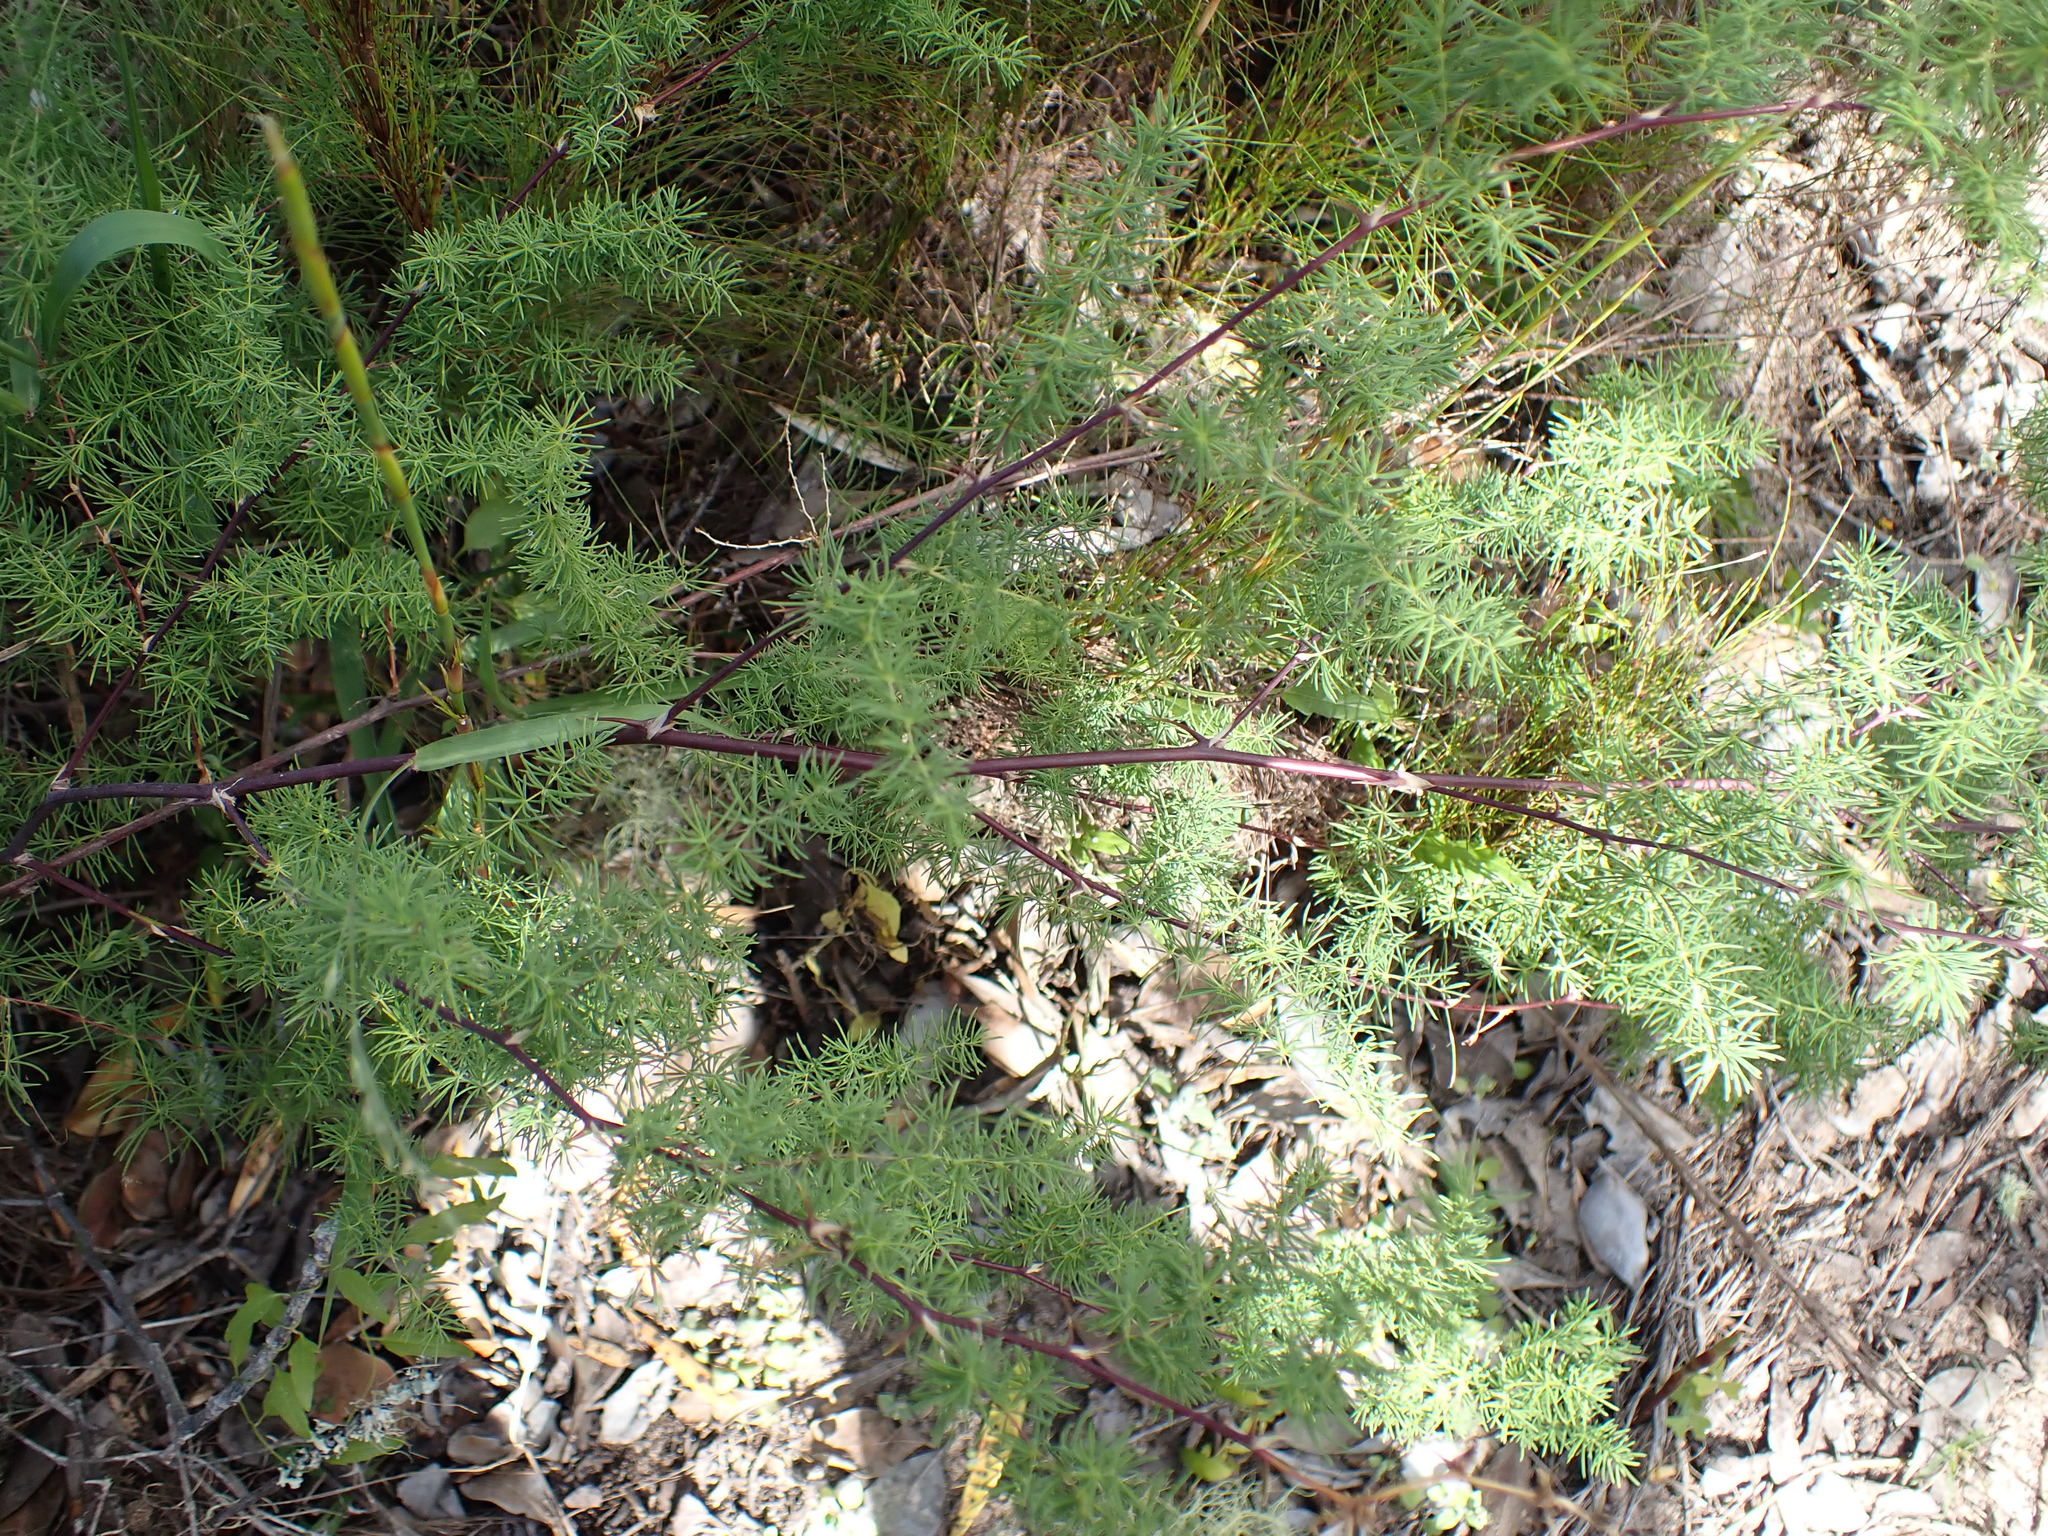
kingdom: Plantae
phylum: Tracheophyta
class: Liliopsida
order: Asparagales
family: Asparagaceae
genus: Asparagus
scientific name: Asparagus rubicundus
